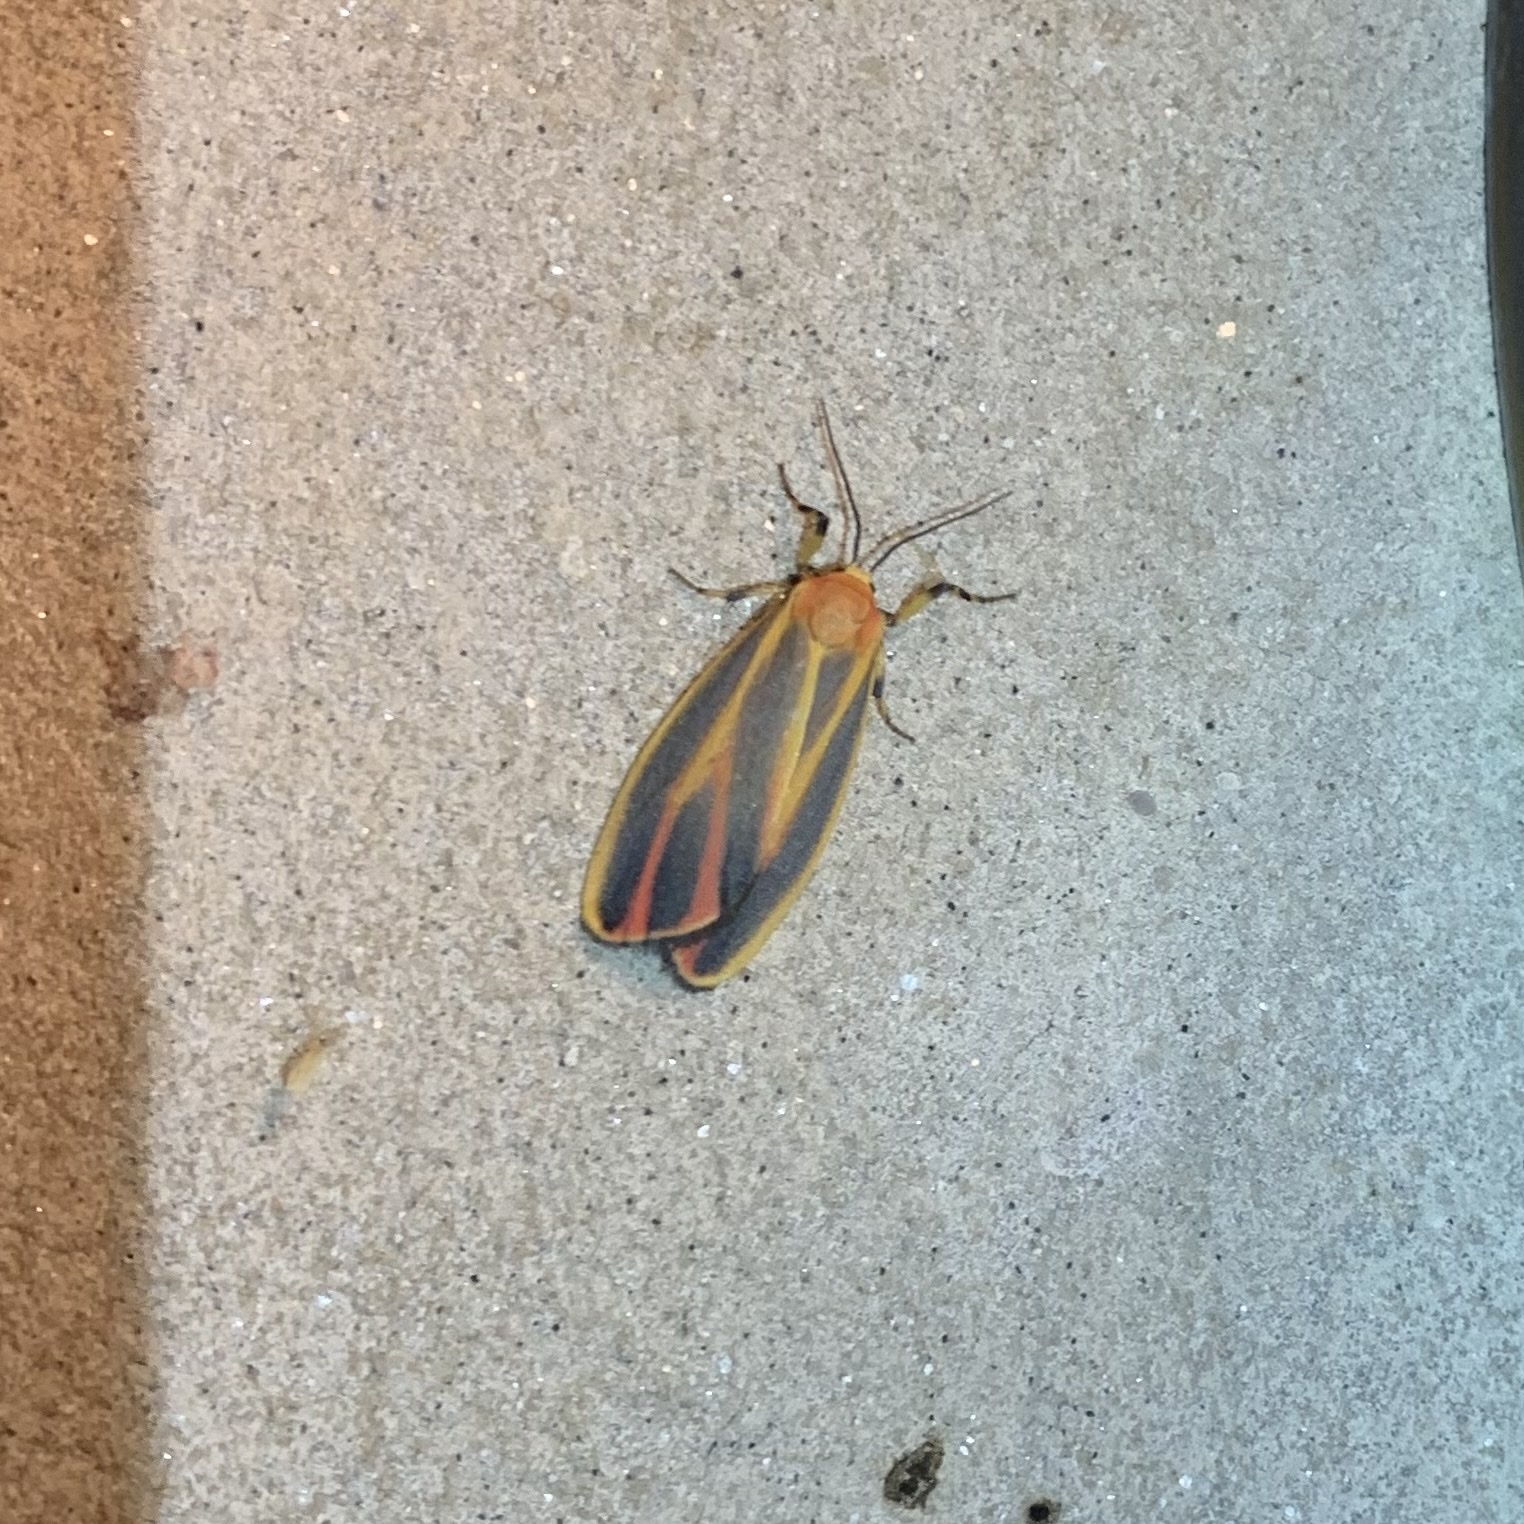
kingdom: Animalia
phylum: Arthropoda
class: Insecta
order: Lepidoptera
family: Erebidae
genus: Hypoprepia
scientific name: Hypoprepia fucosa
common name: Painted lichen moth
